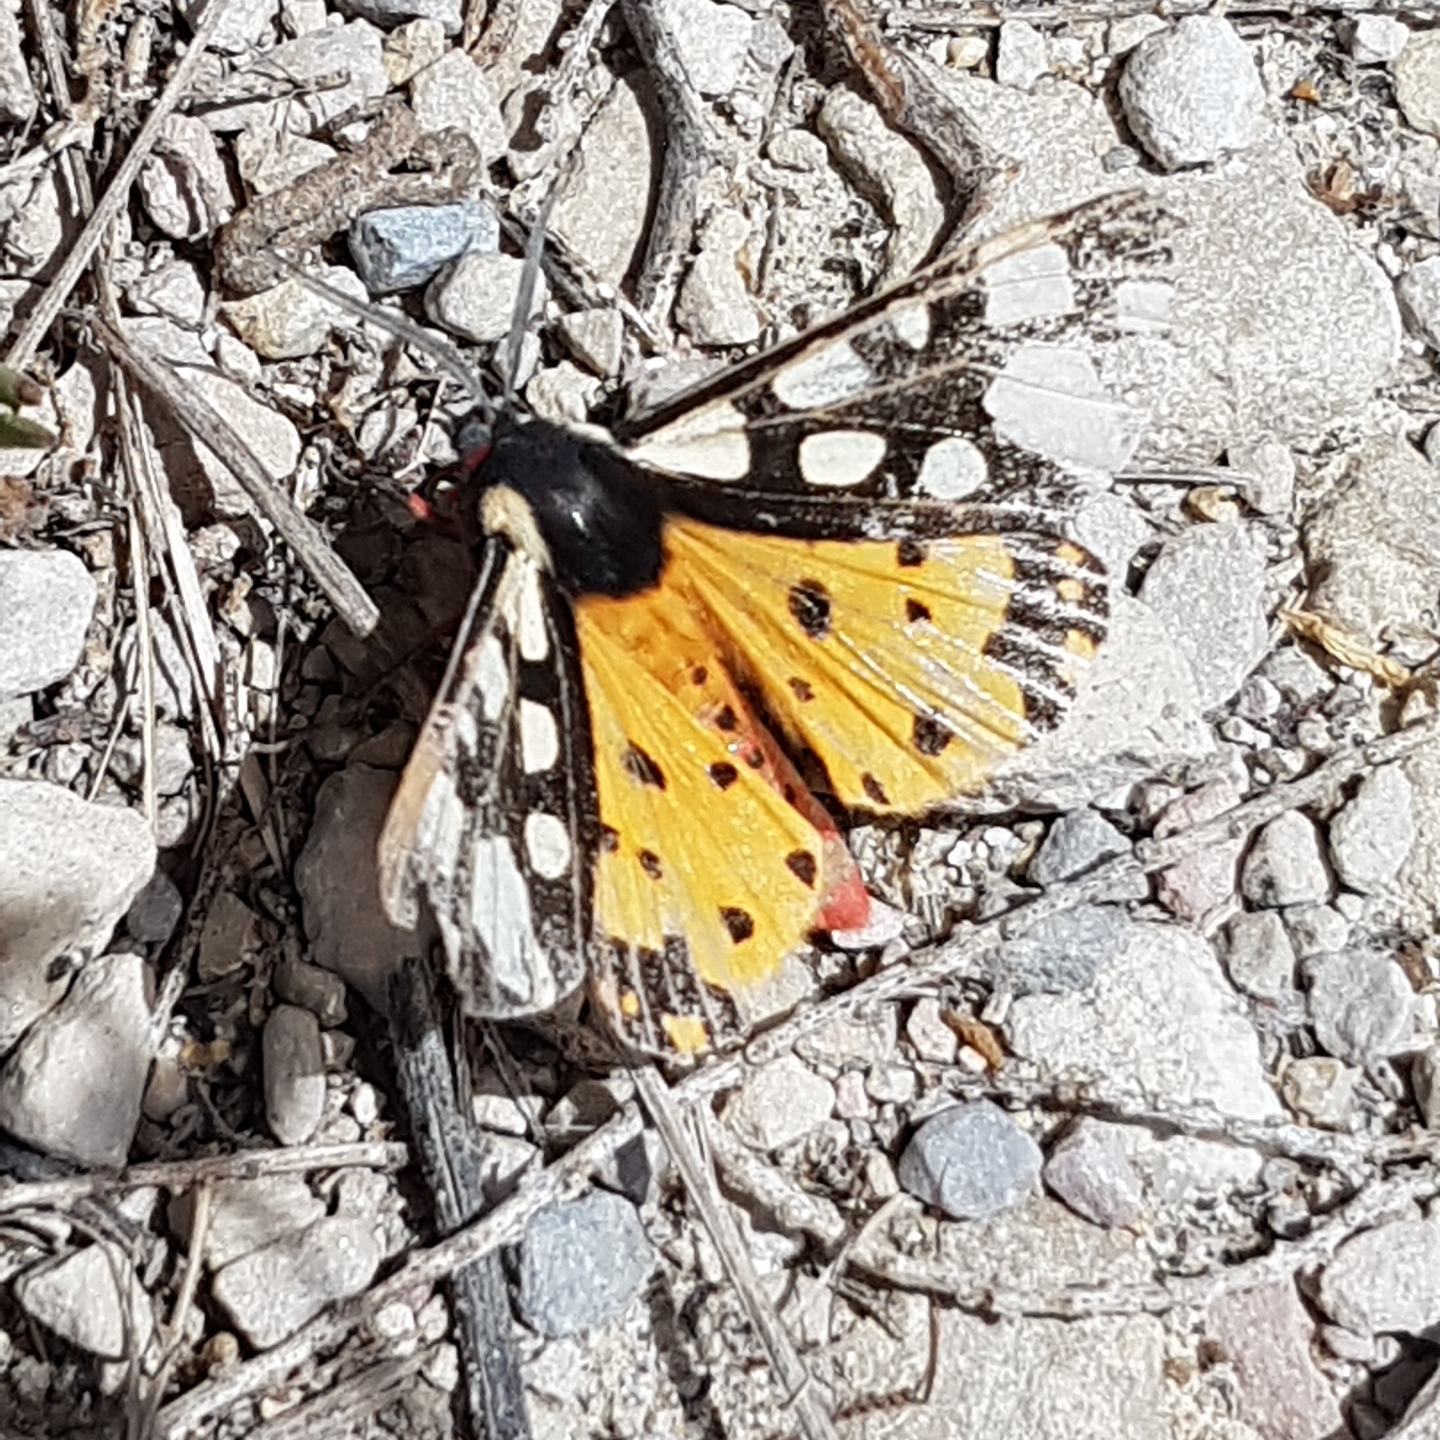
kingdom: Animalia
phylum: Arthropoda
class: Insecta
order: Lepidoptera
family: Erebidae
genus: Epicallia
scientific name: Epicallia villica
